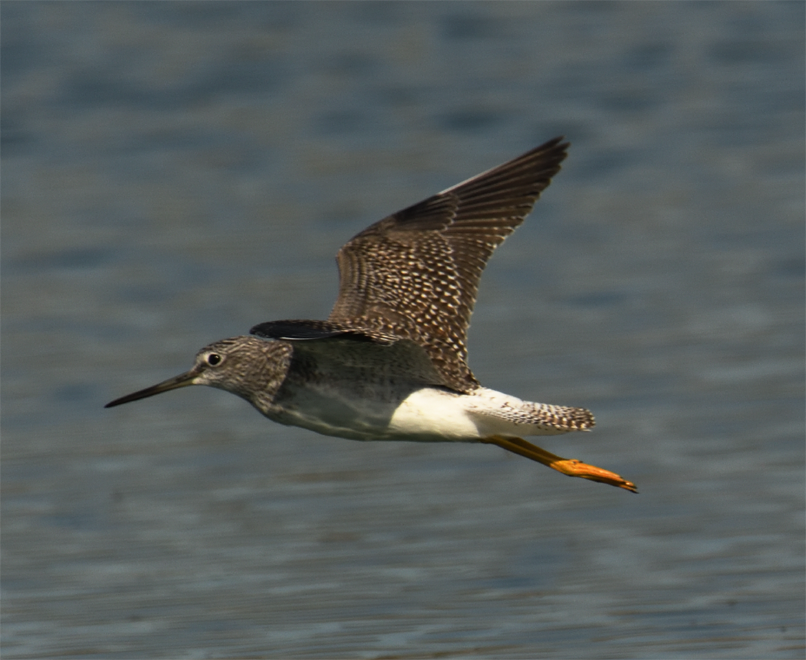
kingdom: Animalia
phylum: Chordata
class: Aves
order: Charadriiformes
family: Scolopacidae
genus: Tringa
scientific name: Tringa melanoleuca
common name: Greater yellowlegs
